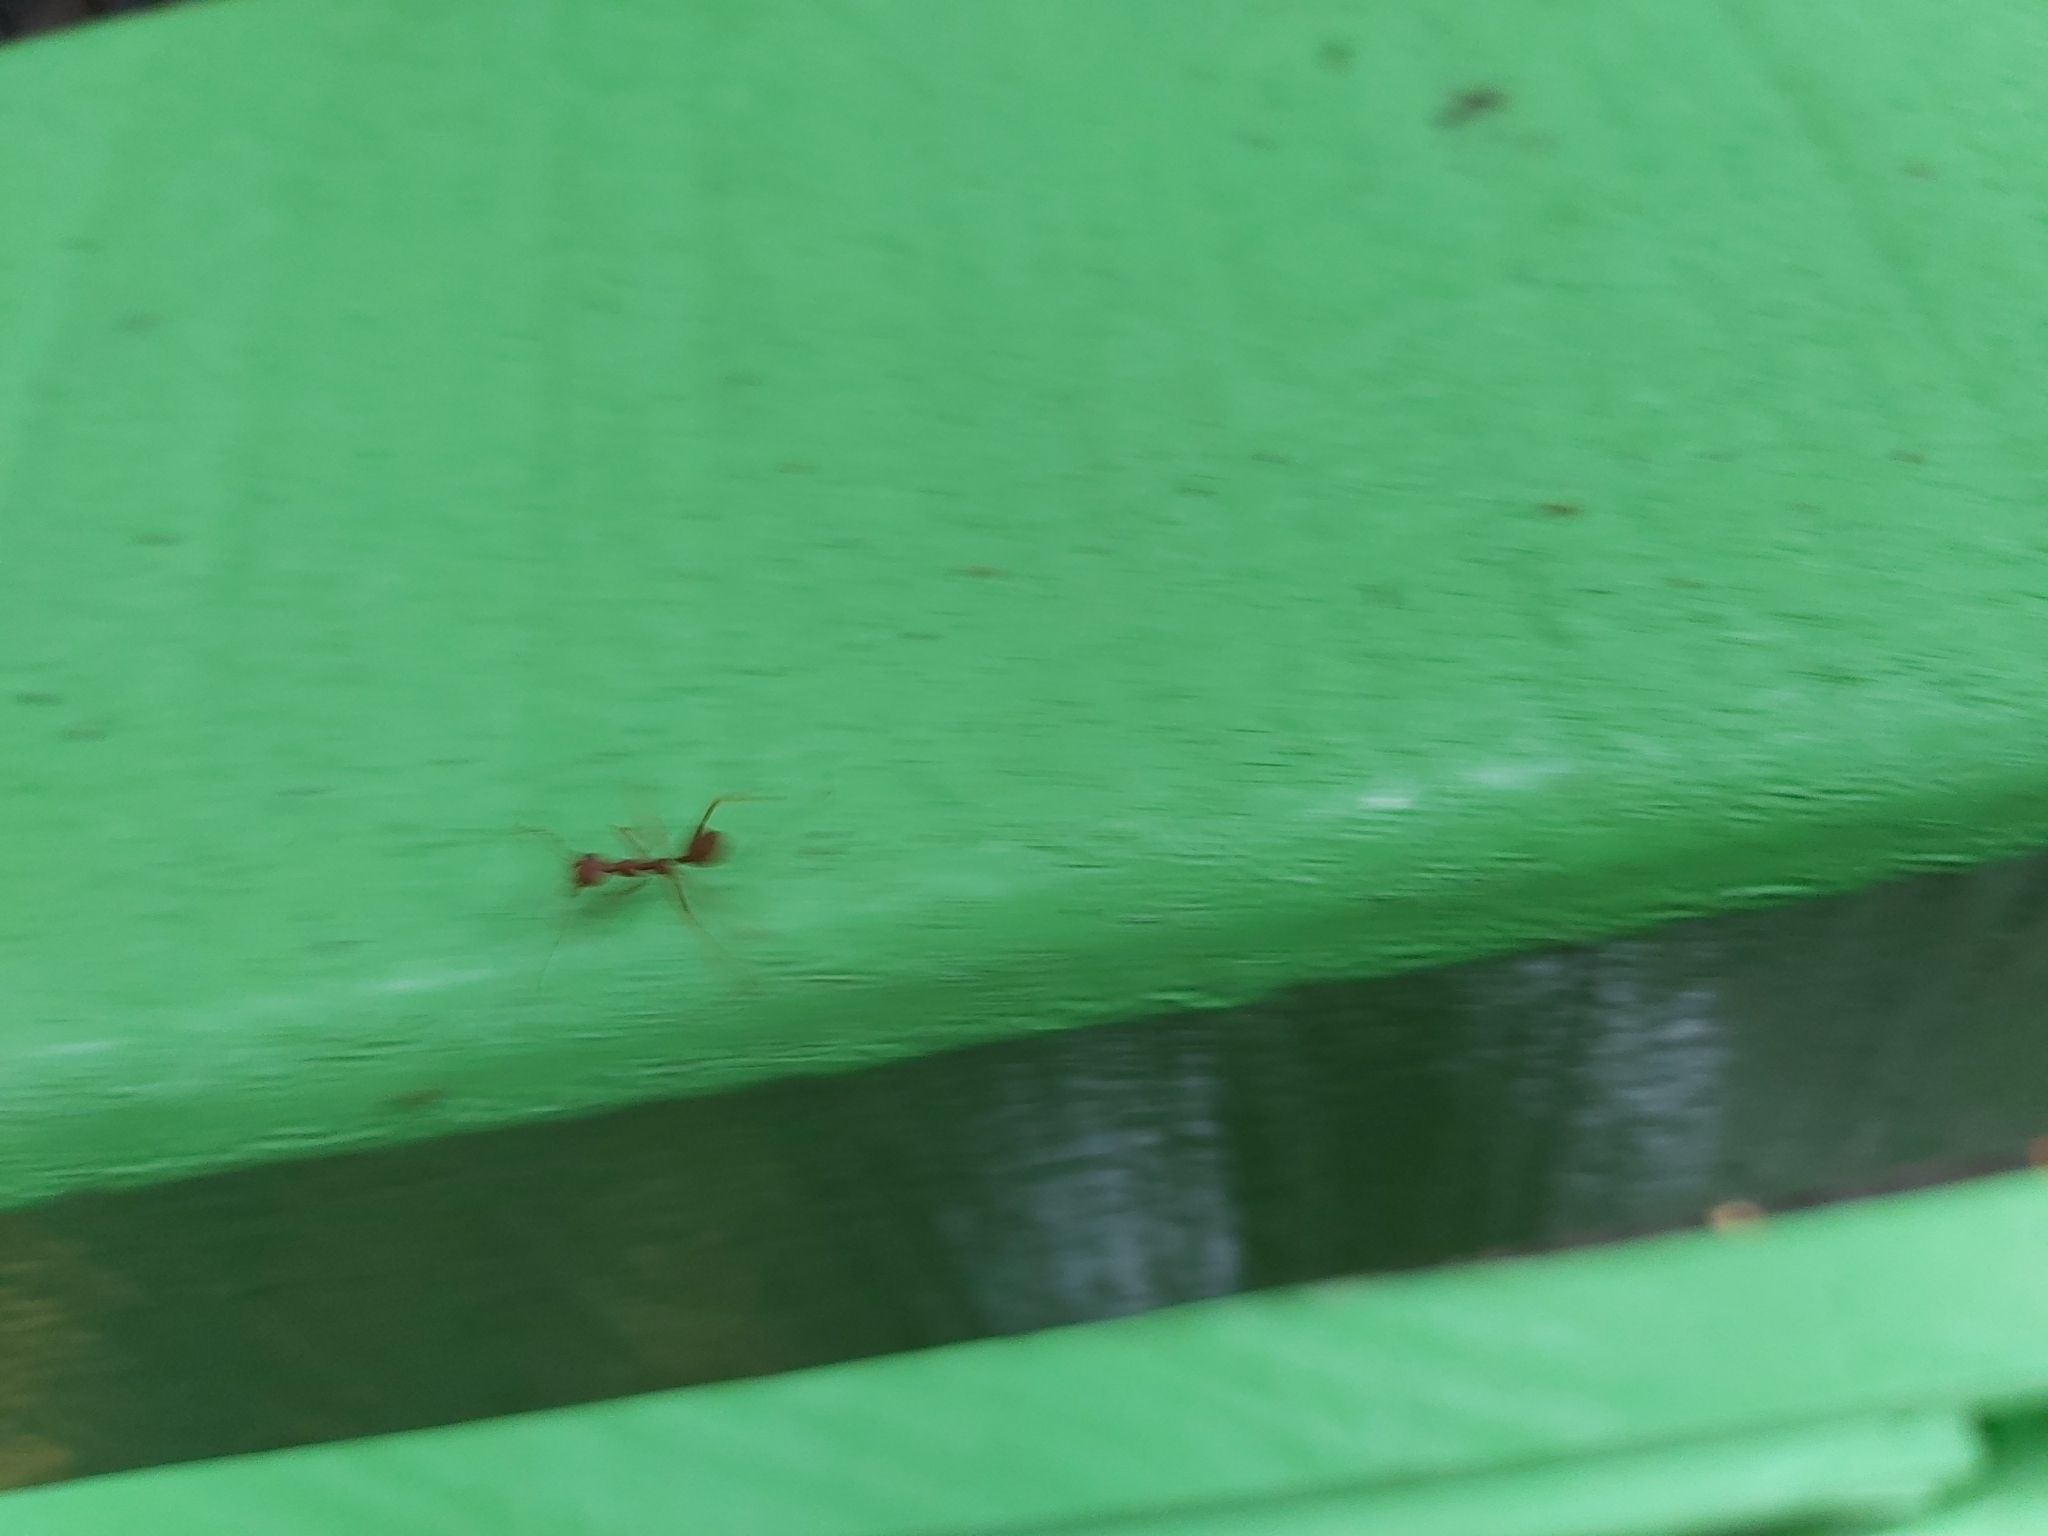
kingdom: Animalia
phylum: Arthropoda
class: Insecta
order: Hymenoptera
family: Formicidae
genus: Oecophylla
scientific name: Oecophylla smaragdina
